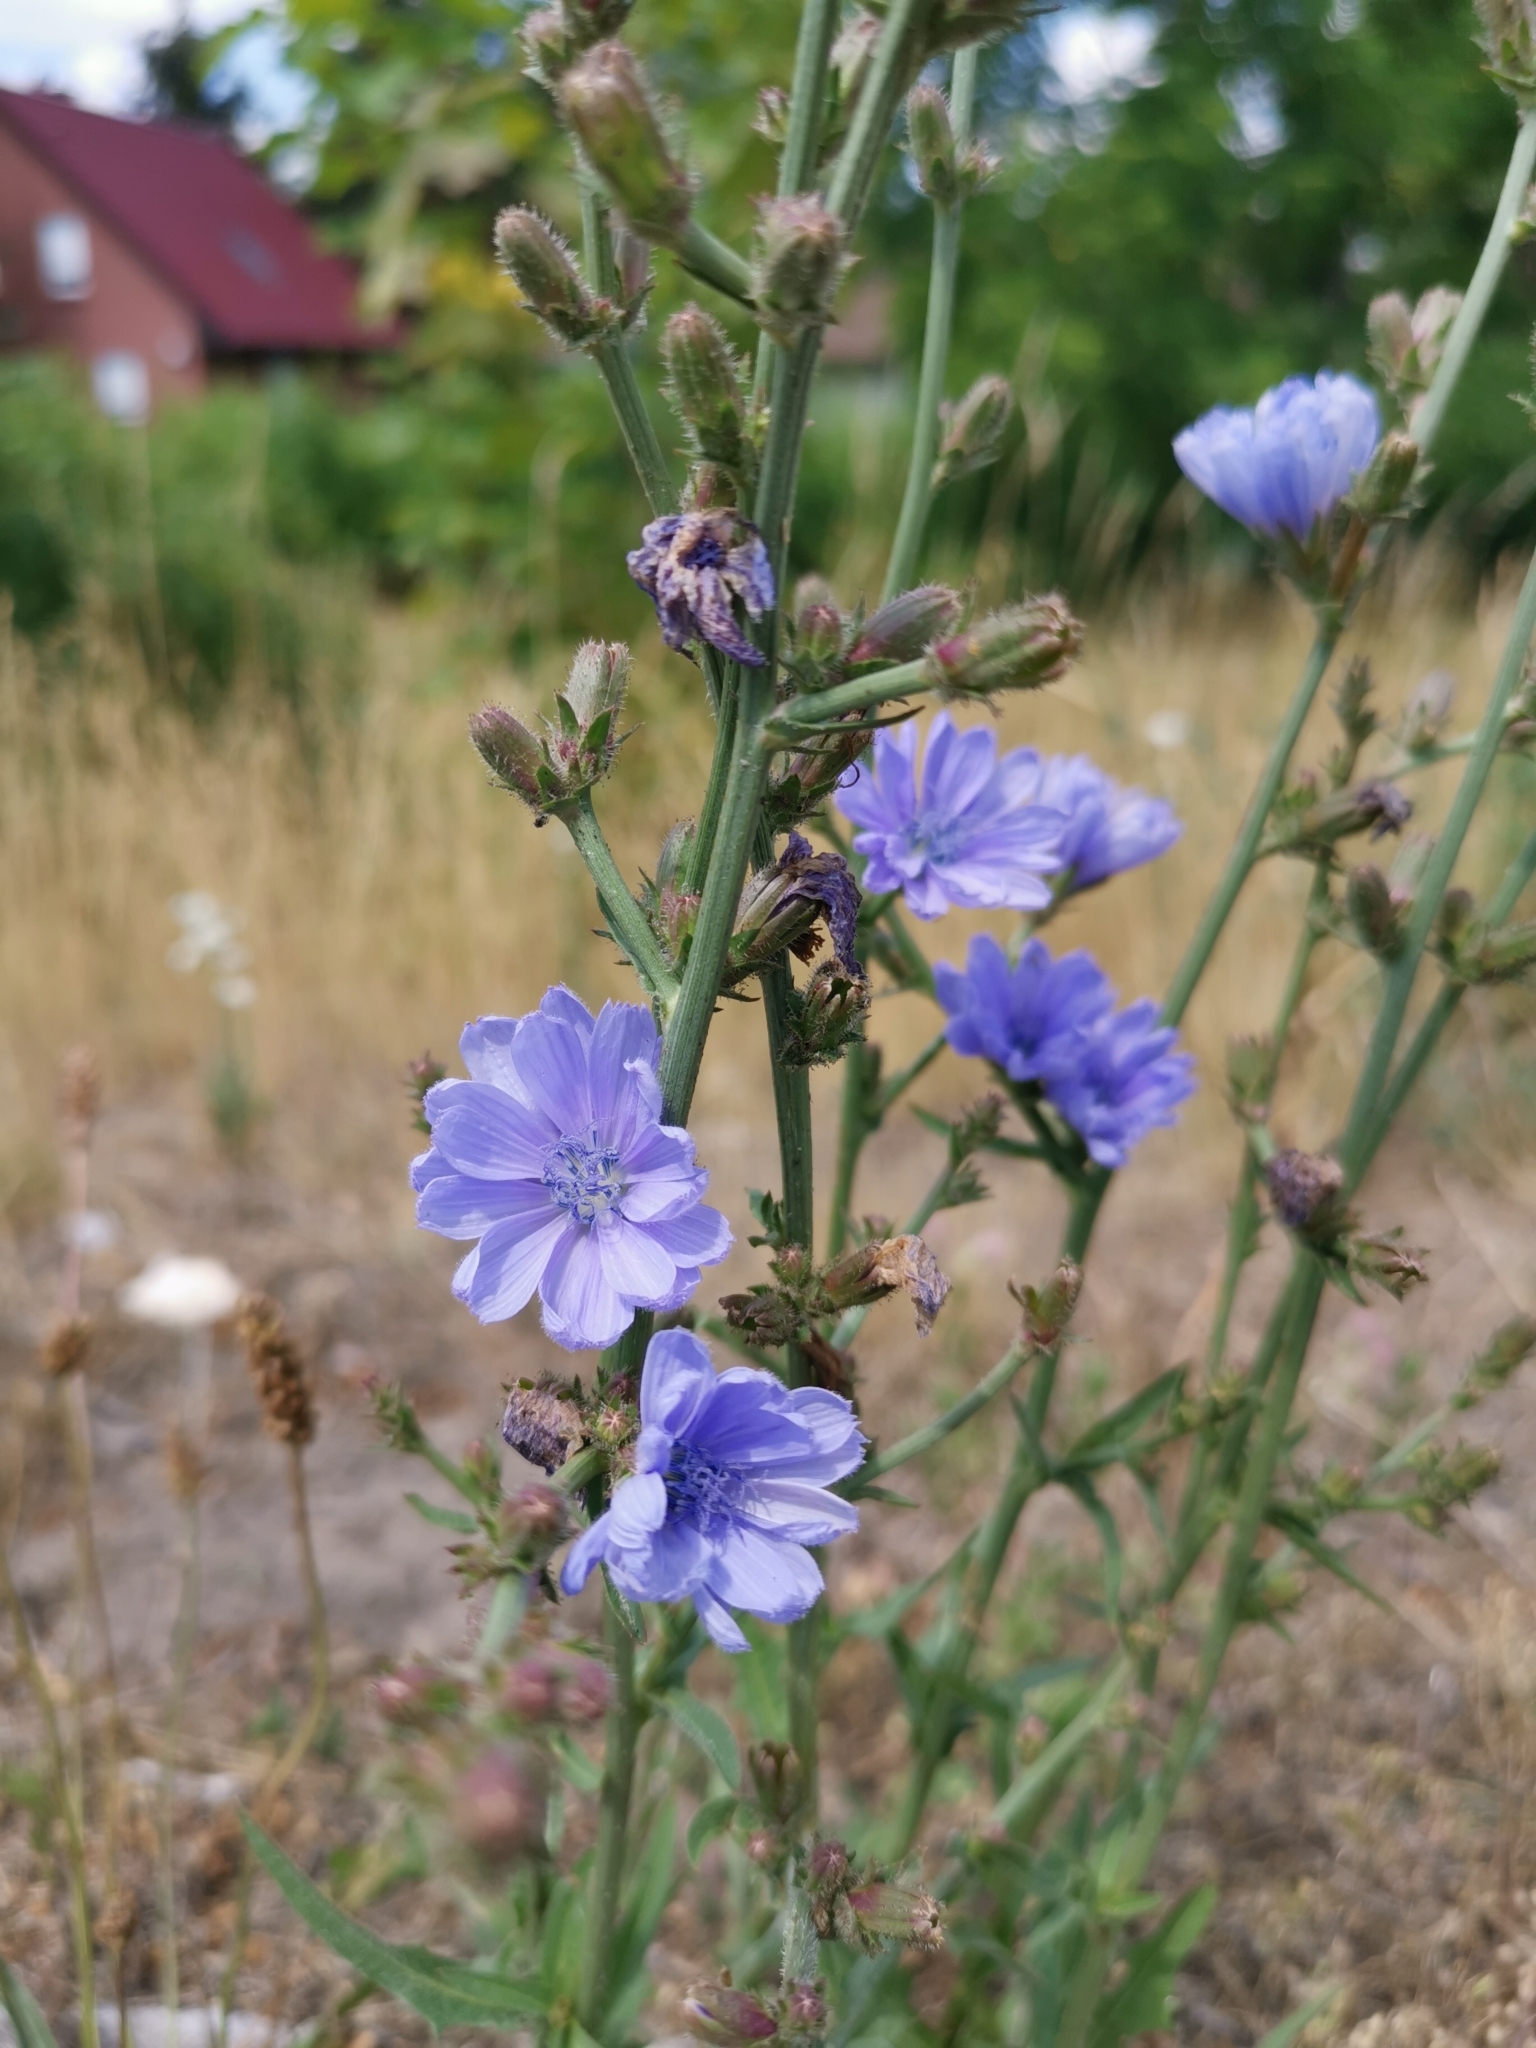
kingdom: Plantae
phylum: Tracheophyta
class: Magnoliopsida
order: Asterales
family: Asteraceae
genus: Cichorium
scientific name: Cichorium intybus
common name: Chicory
